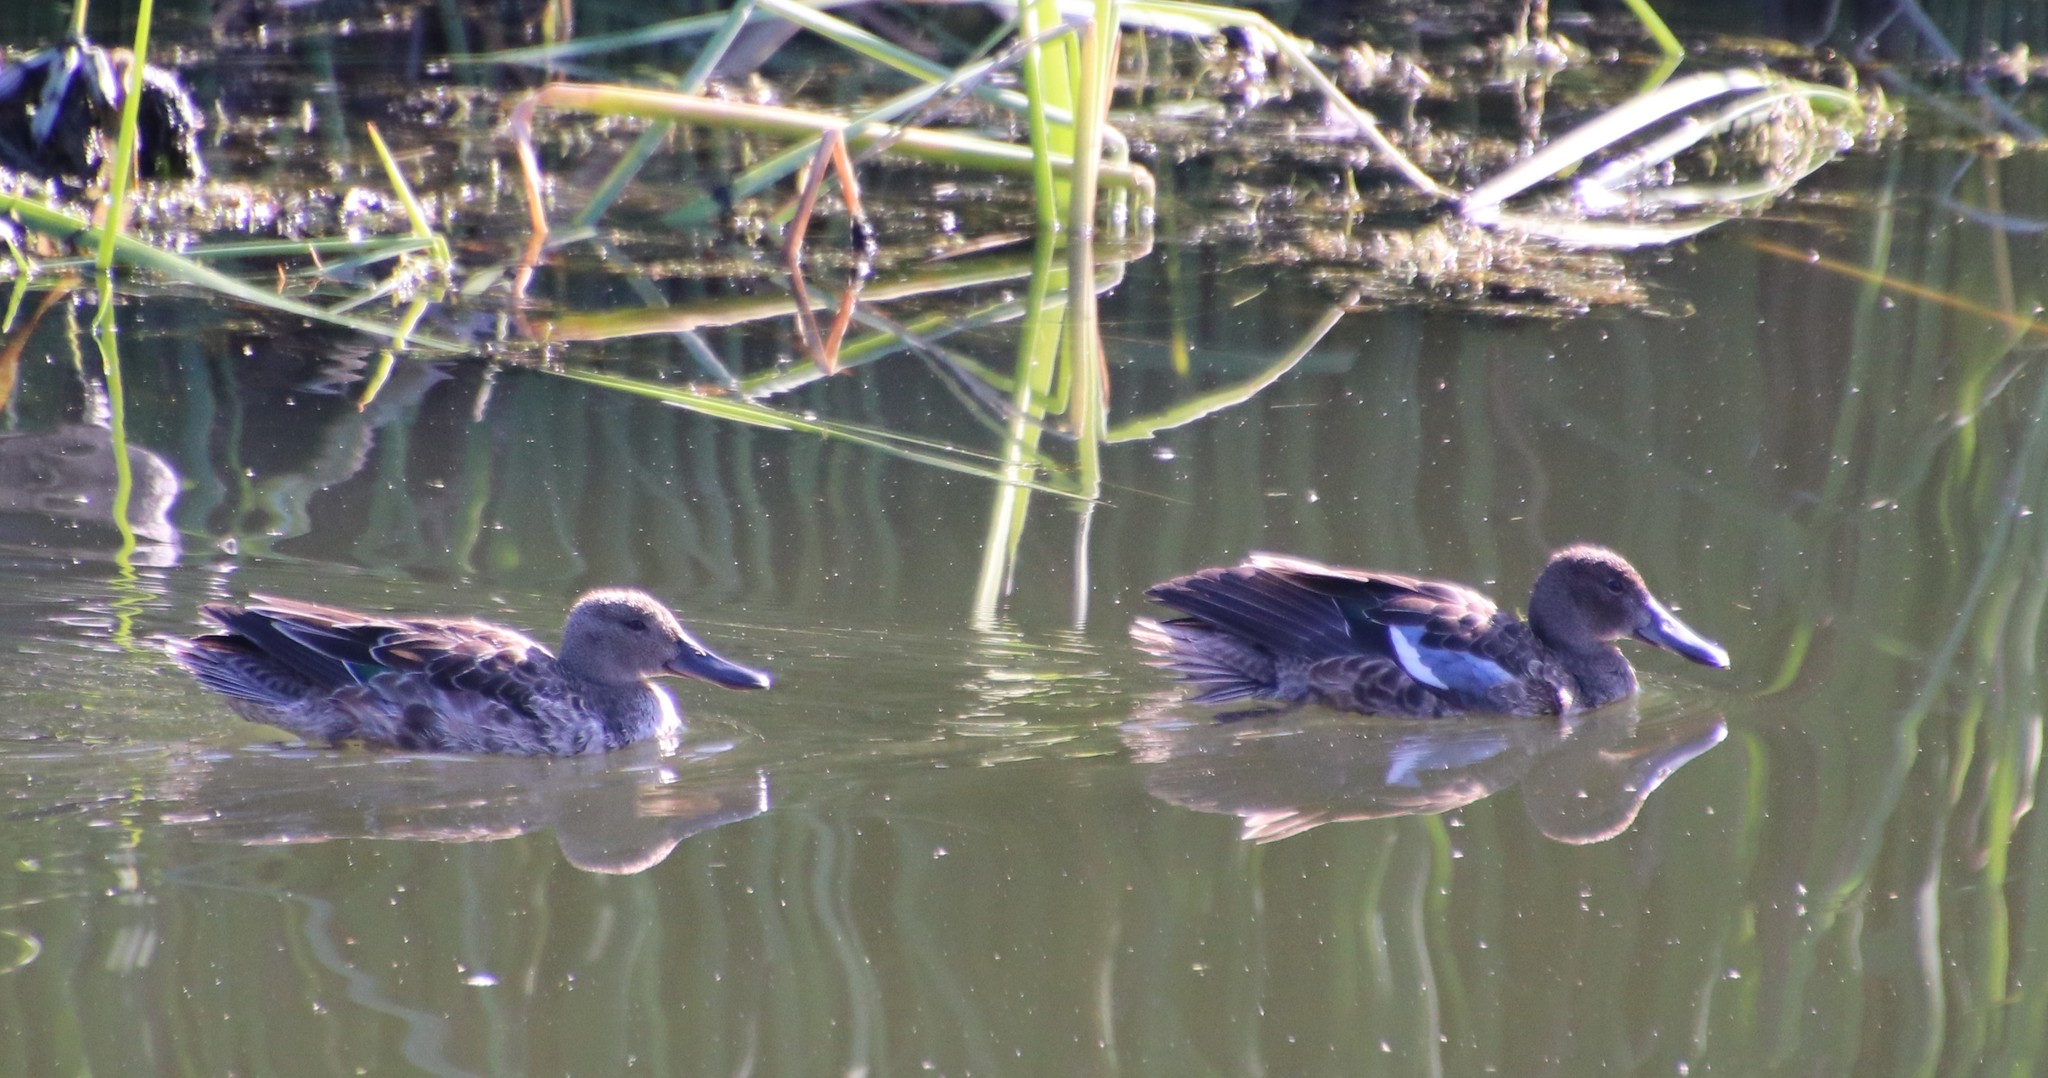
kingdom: Animalia
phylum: Chordata
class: Aves
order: Anseriformes
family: Anatidae
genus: Spatula
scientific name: Spatula cyanoptera
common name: Cinnamon teal
